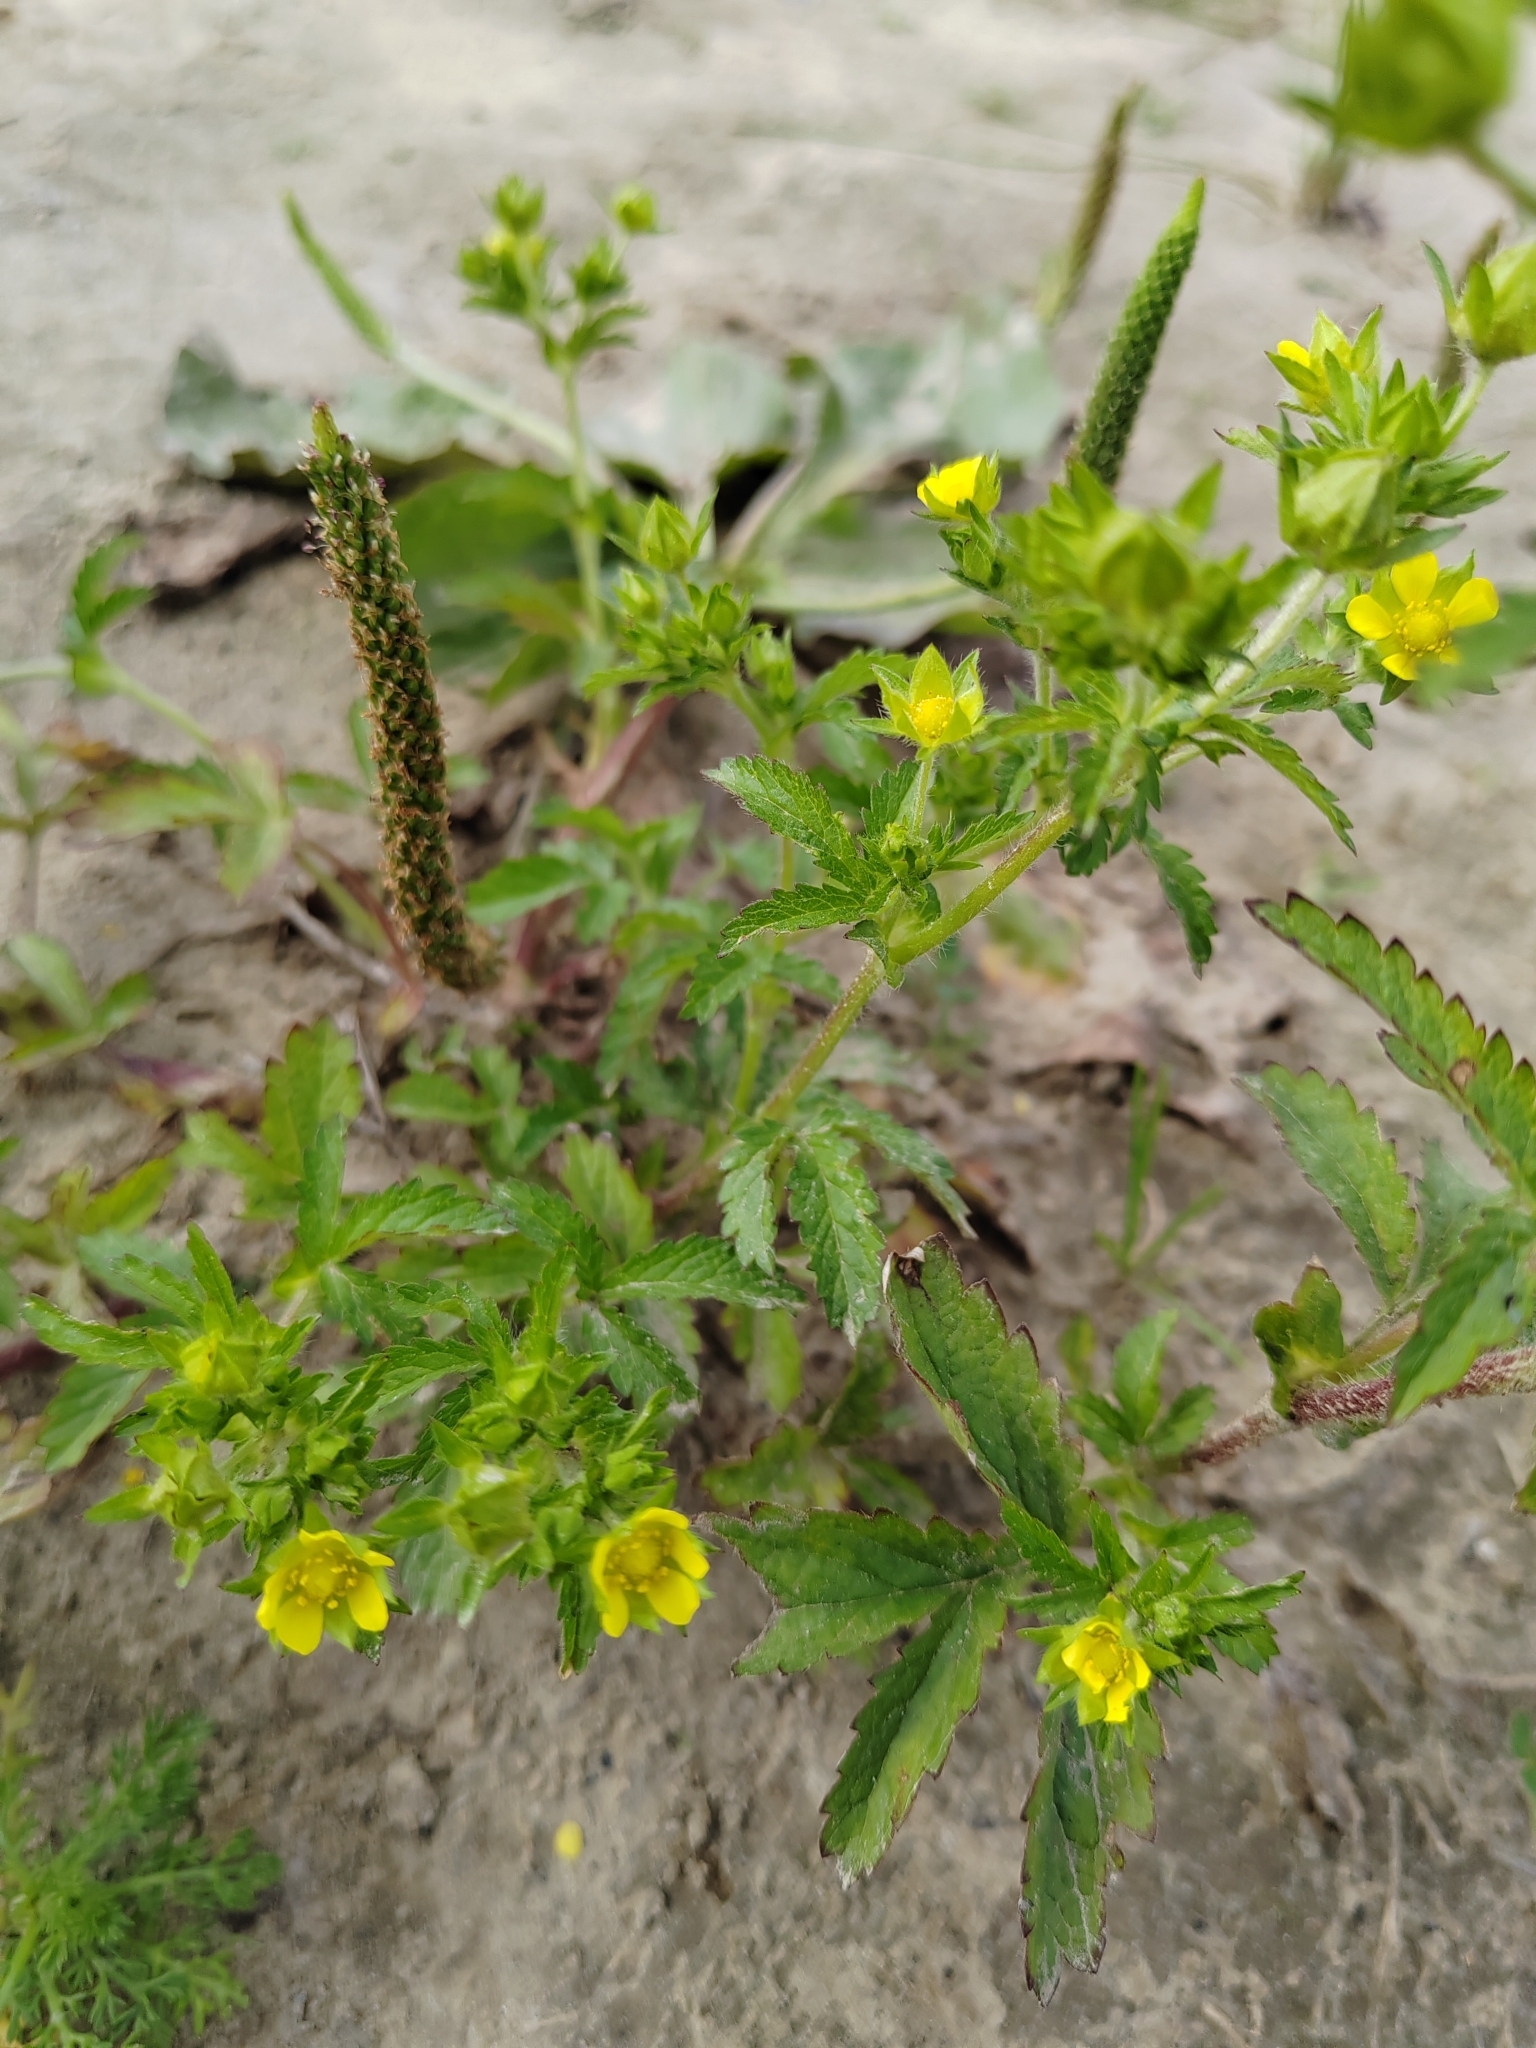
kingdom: Plantae
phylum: Tracheophyta
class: Magnoliopsida
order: Rosales
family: Rosaceae
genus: Potentilla
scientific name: Potentilla norvegica
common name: Ternate-leaved cinquefoil
